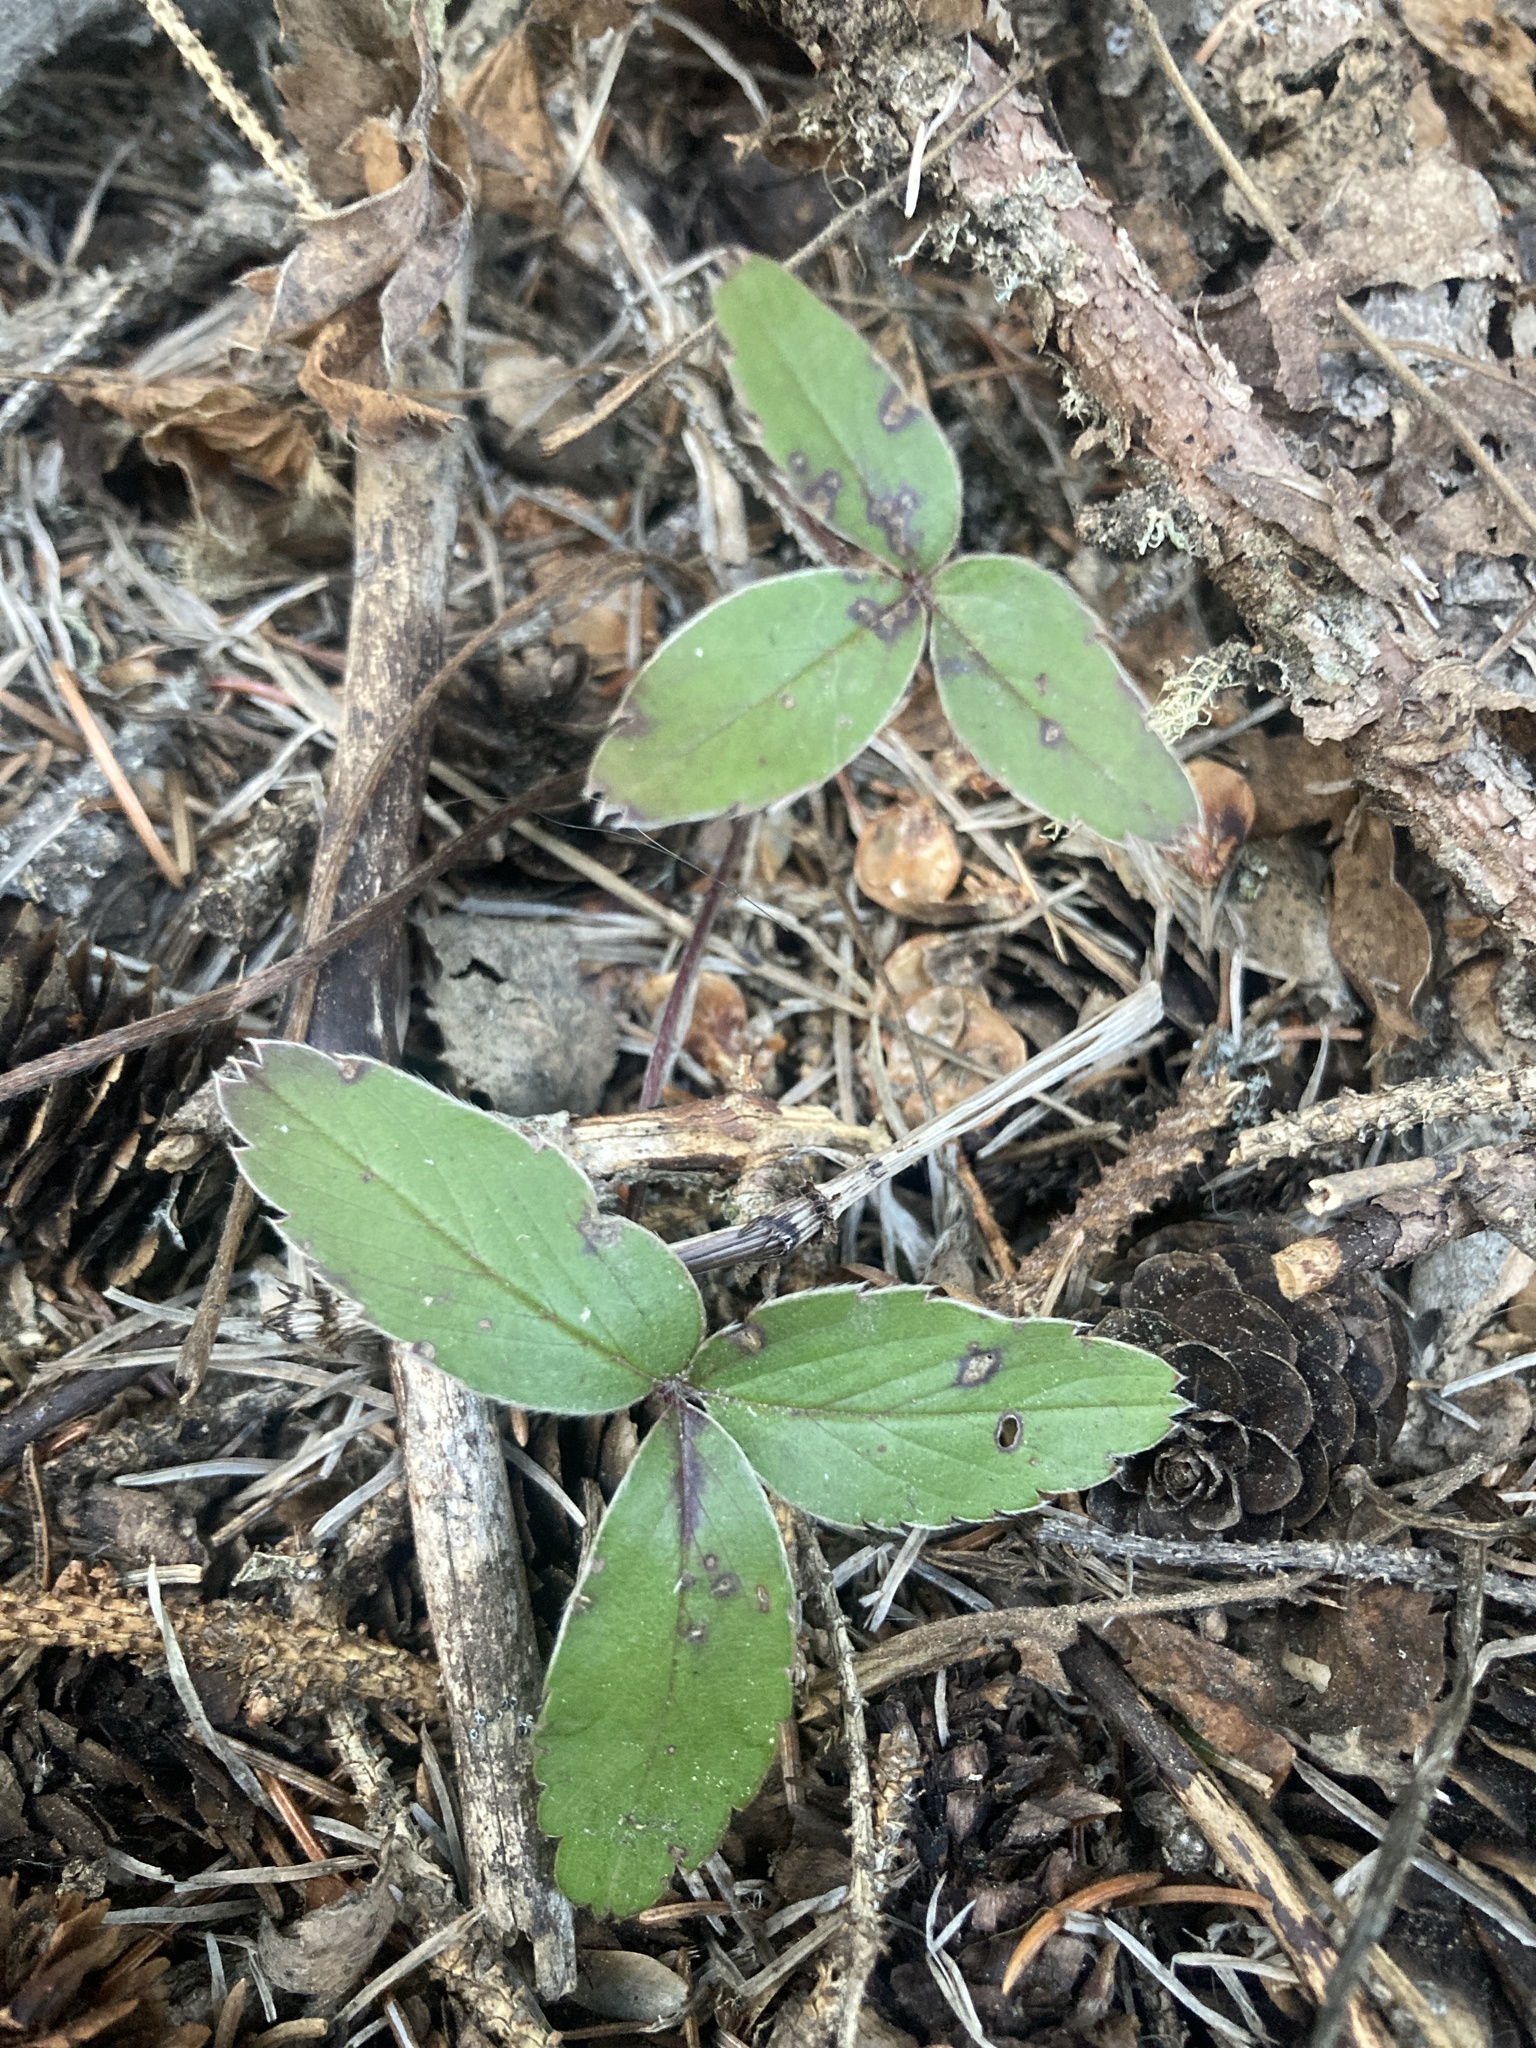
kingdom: Plantae
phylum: Tracheophyta
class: Magnoliopsida
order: Rosales
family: Rosaceae
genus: Fragaria
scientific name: Fragaria virginiana
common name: Thickleaved wild strawberry
